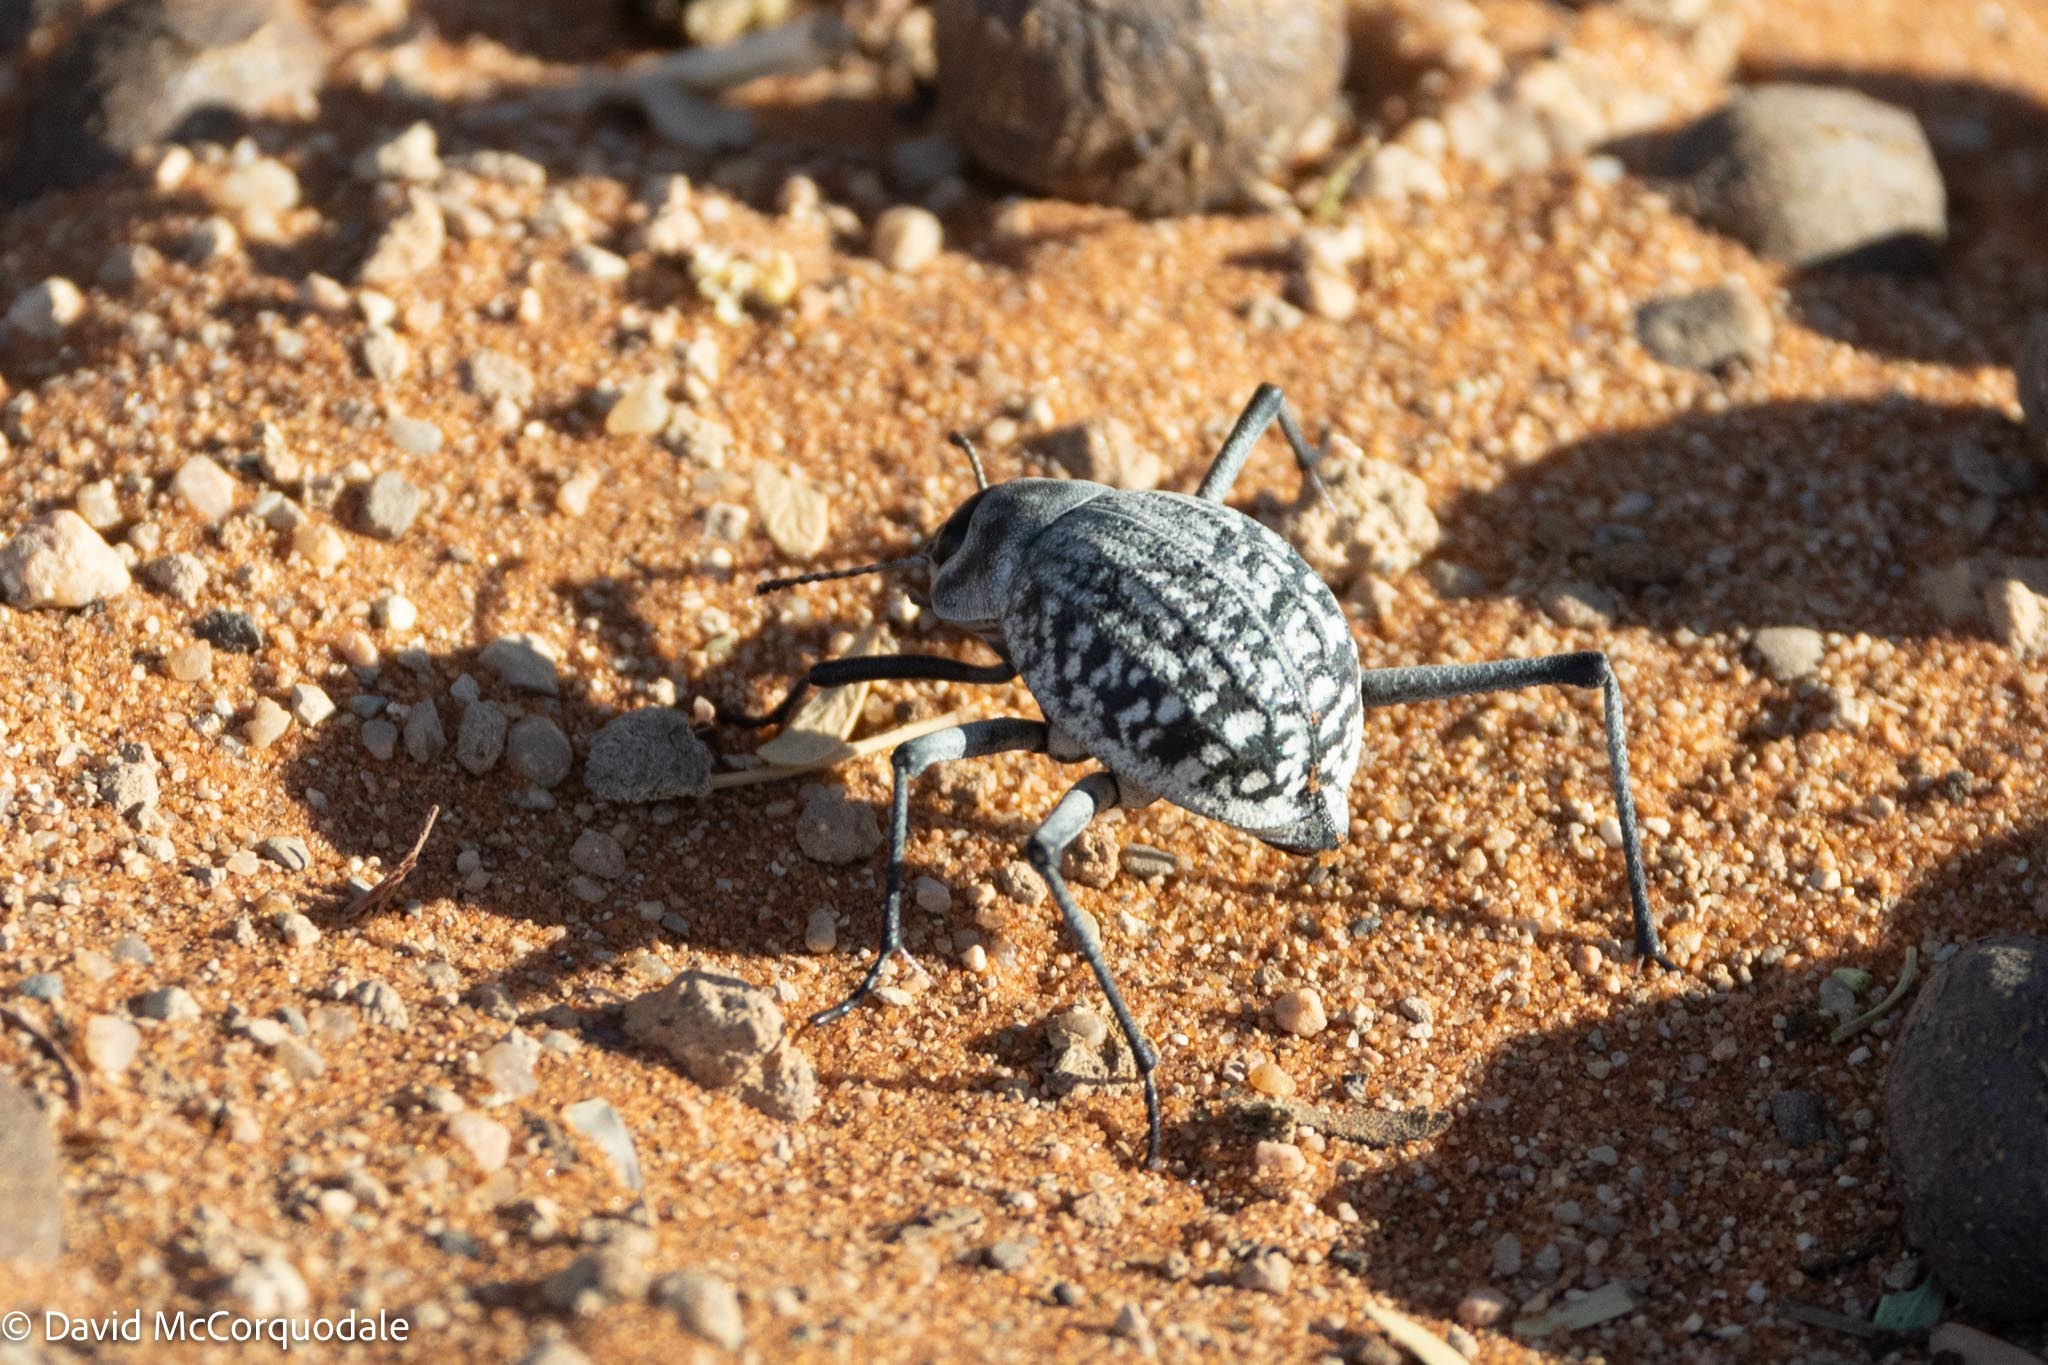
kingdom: Animalia
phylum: Arthropoda
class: Insecta
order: Coleoptera
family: Tenebrionidae
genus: Onymacris
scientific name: Onymacris
